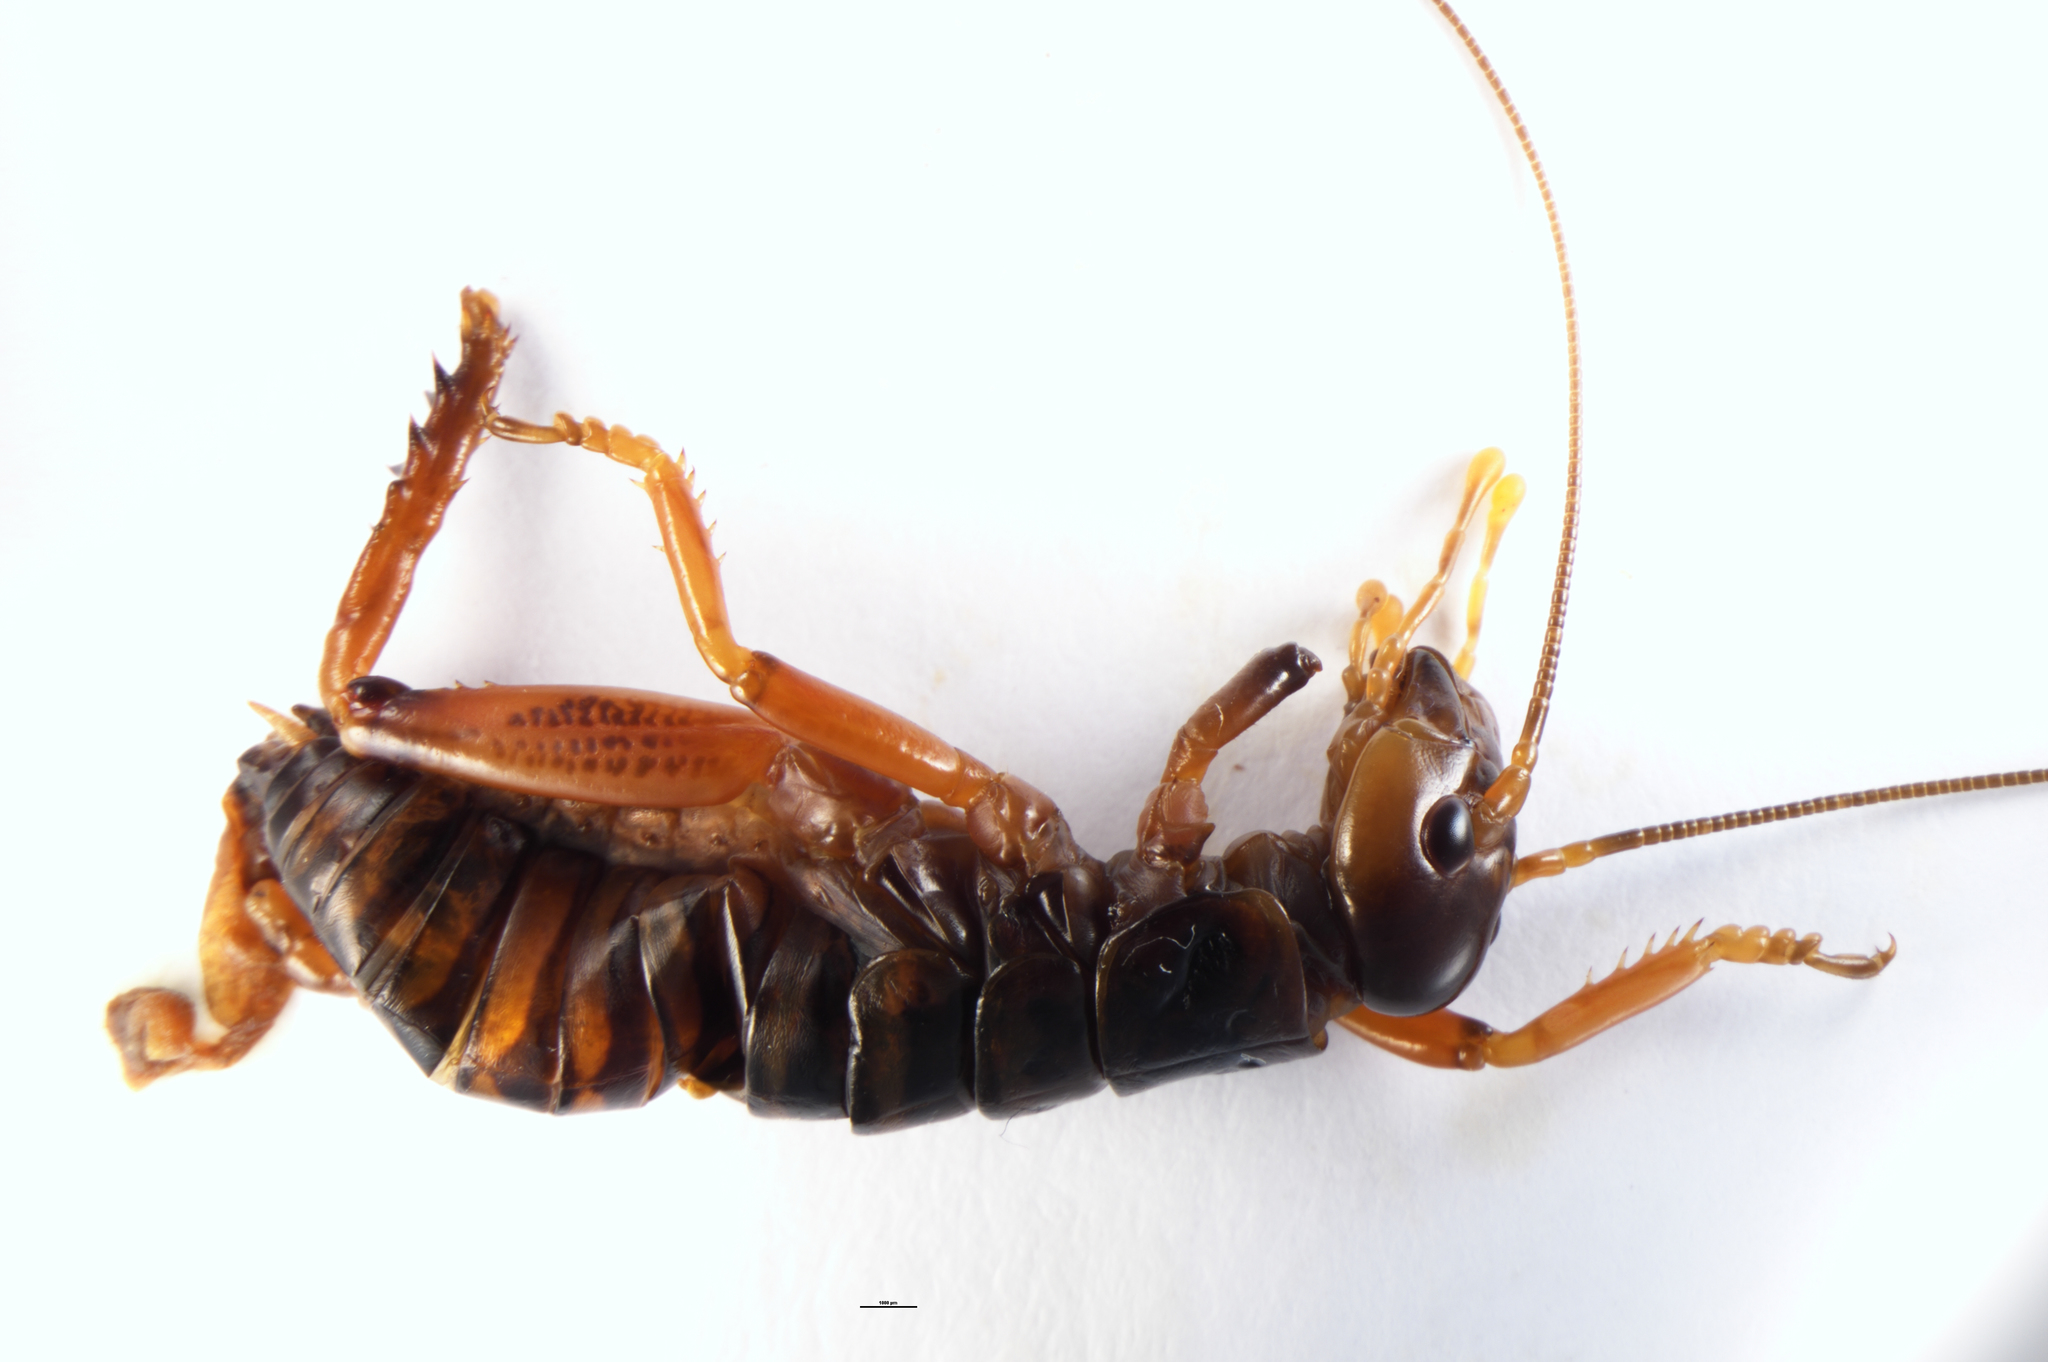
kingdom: Animalia
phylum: Arthropoda
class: Insecta
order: Orthoptera
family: Anostostomatidae
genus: Hemideina
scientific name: Hemideina maori
